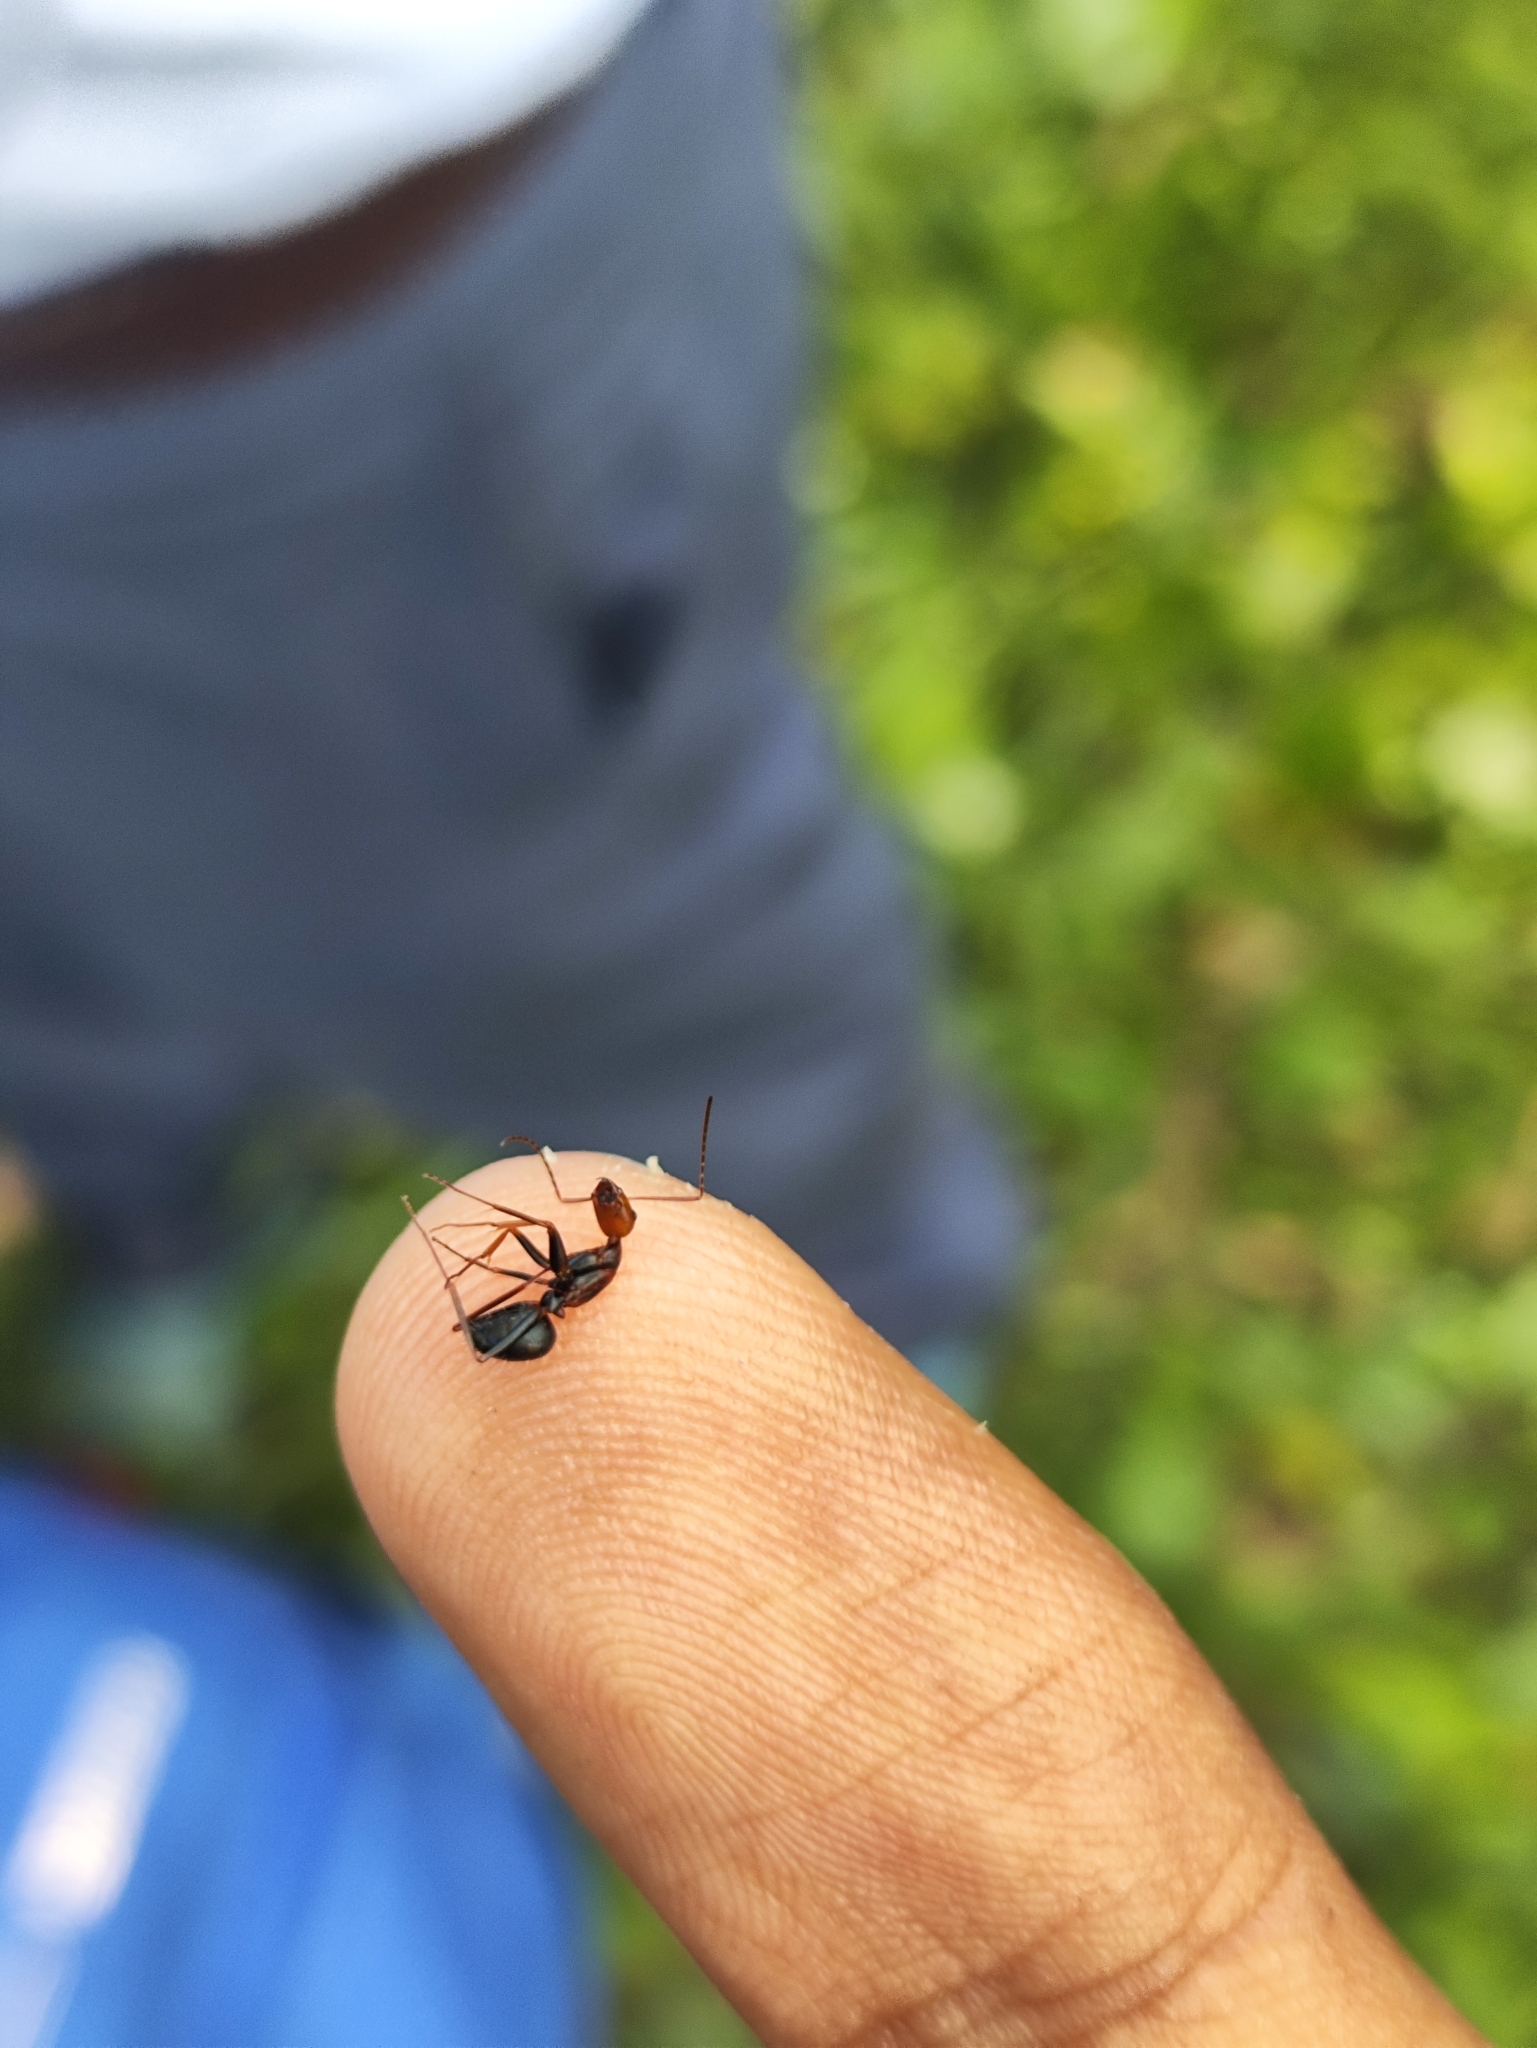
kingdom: Animalia
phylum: Arthropoda
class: Insecta
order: Hymenoptera
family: Formicidae
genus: Camponotus
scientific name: Camponotus rufoglaucus
